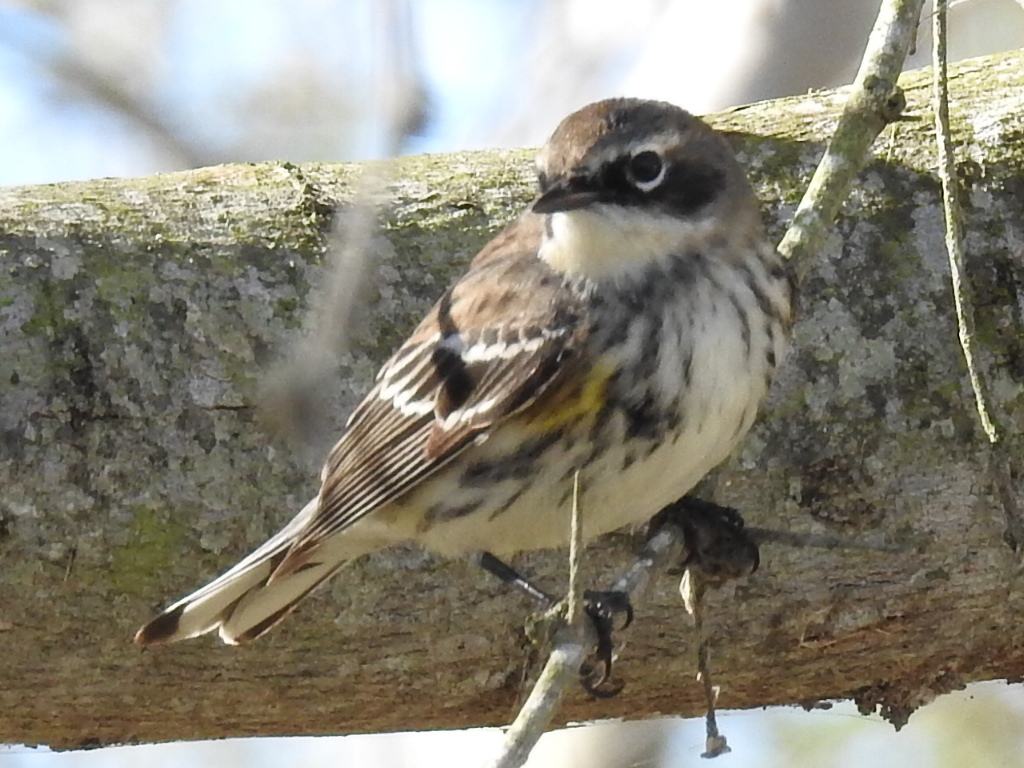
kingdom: Animalia
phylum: Chordata
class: Aves
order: Passeriformes
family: Parulidae
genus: Setophaga
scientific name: Setophaga coronata
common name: Myrtle warbler
